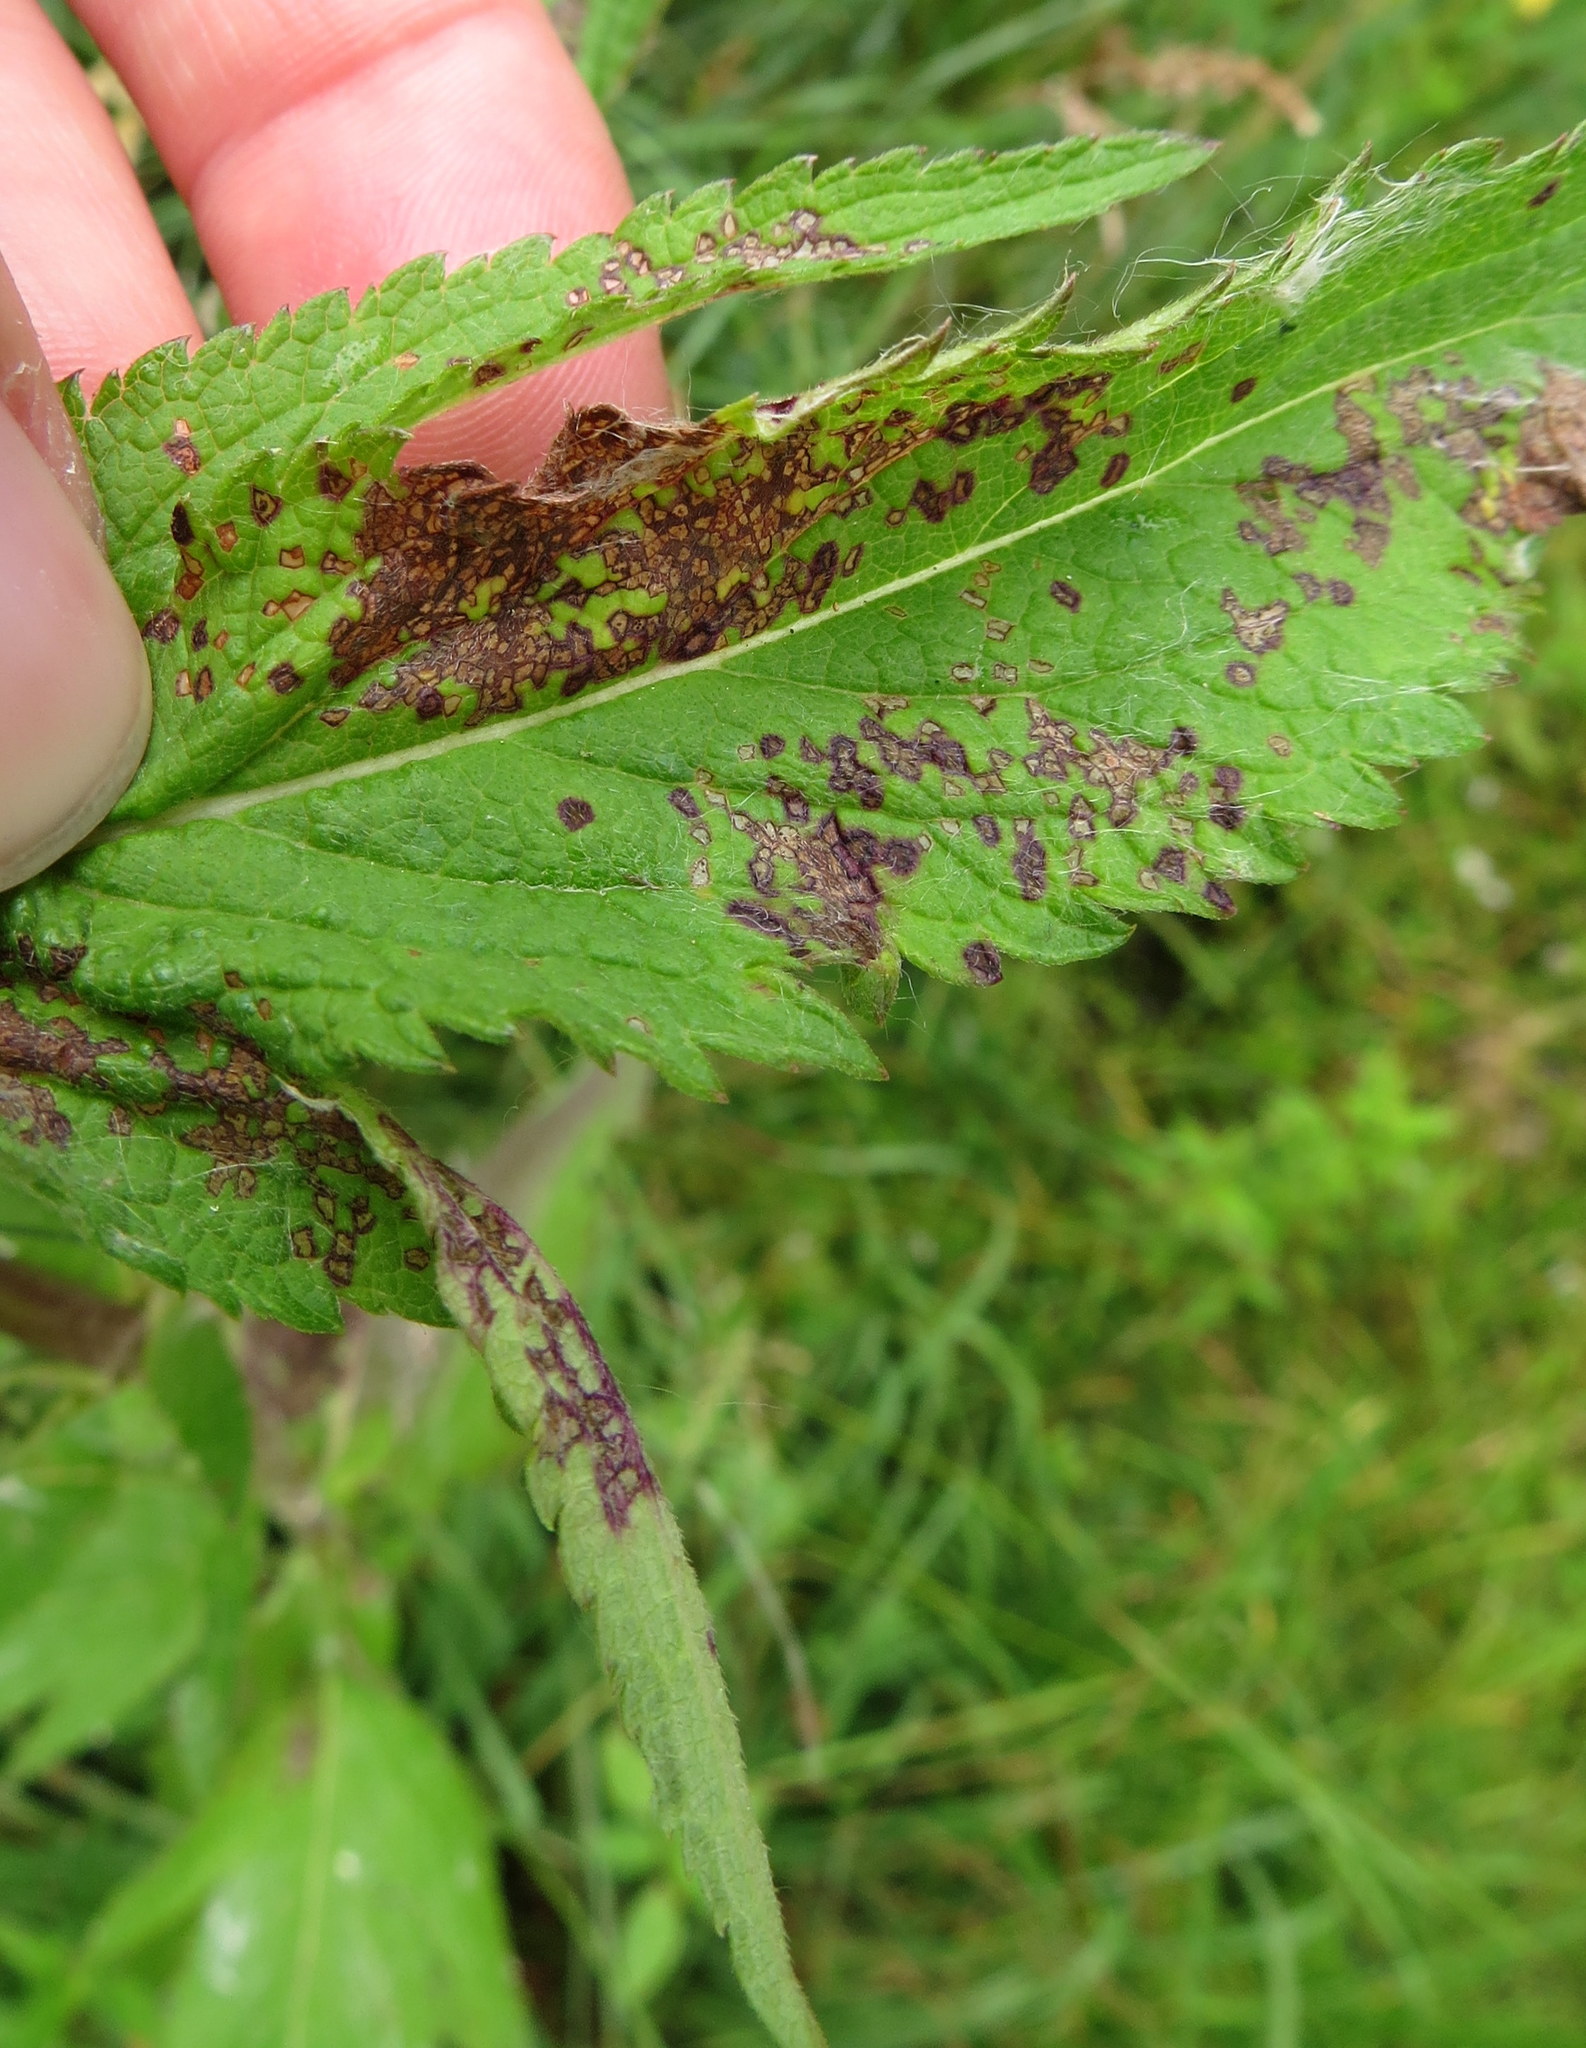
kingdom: Plantae
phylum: Tracheophyta
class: Magnoliopsida
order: Lamiales
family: Verbenaceae
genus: Verbena
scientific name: Verbena hastata
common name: American blue vervain
